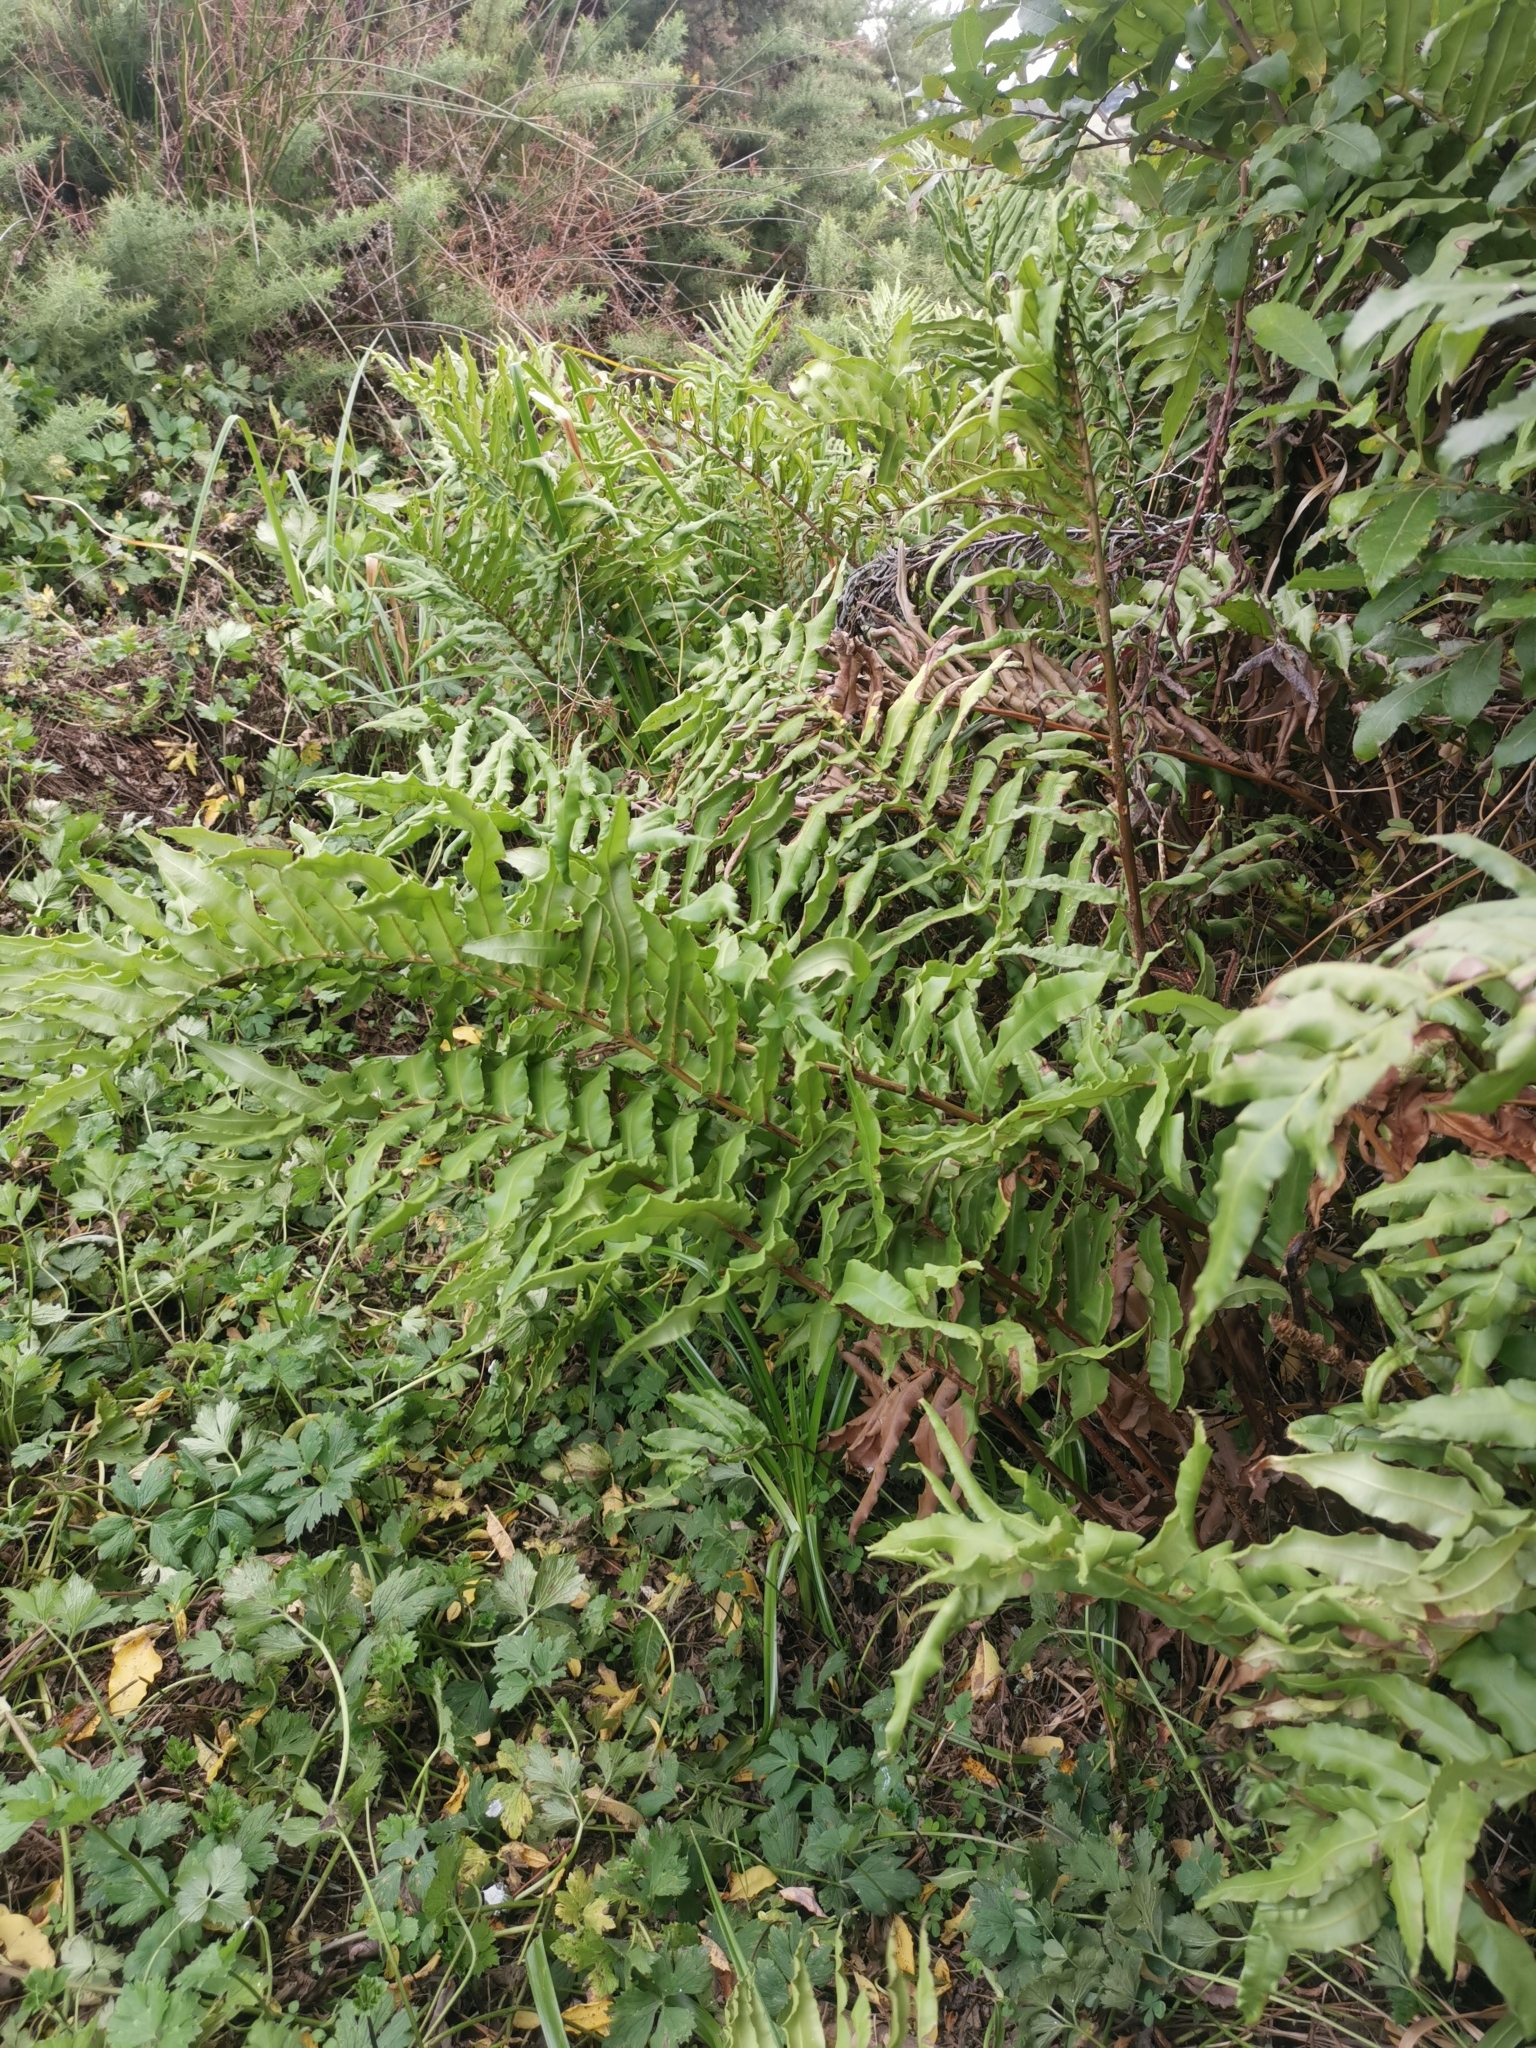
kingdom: Plantae
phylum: Tracheophyta
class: Polypodiopsida
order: Polypodiales
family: Blechnaceae
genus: Parablechnum
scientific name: Parablechnum chilense
